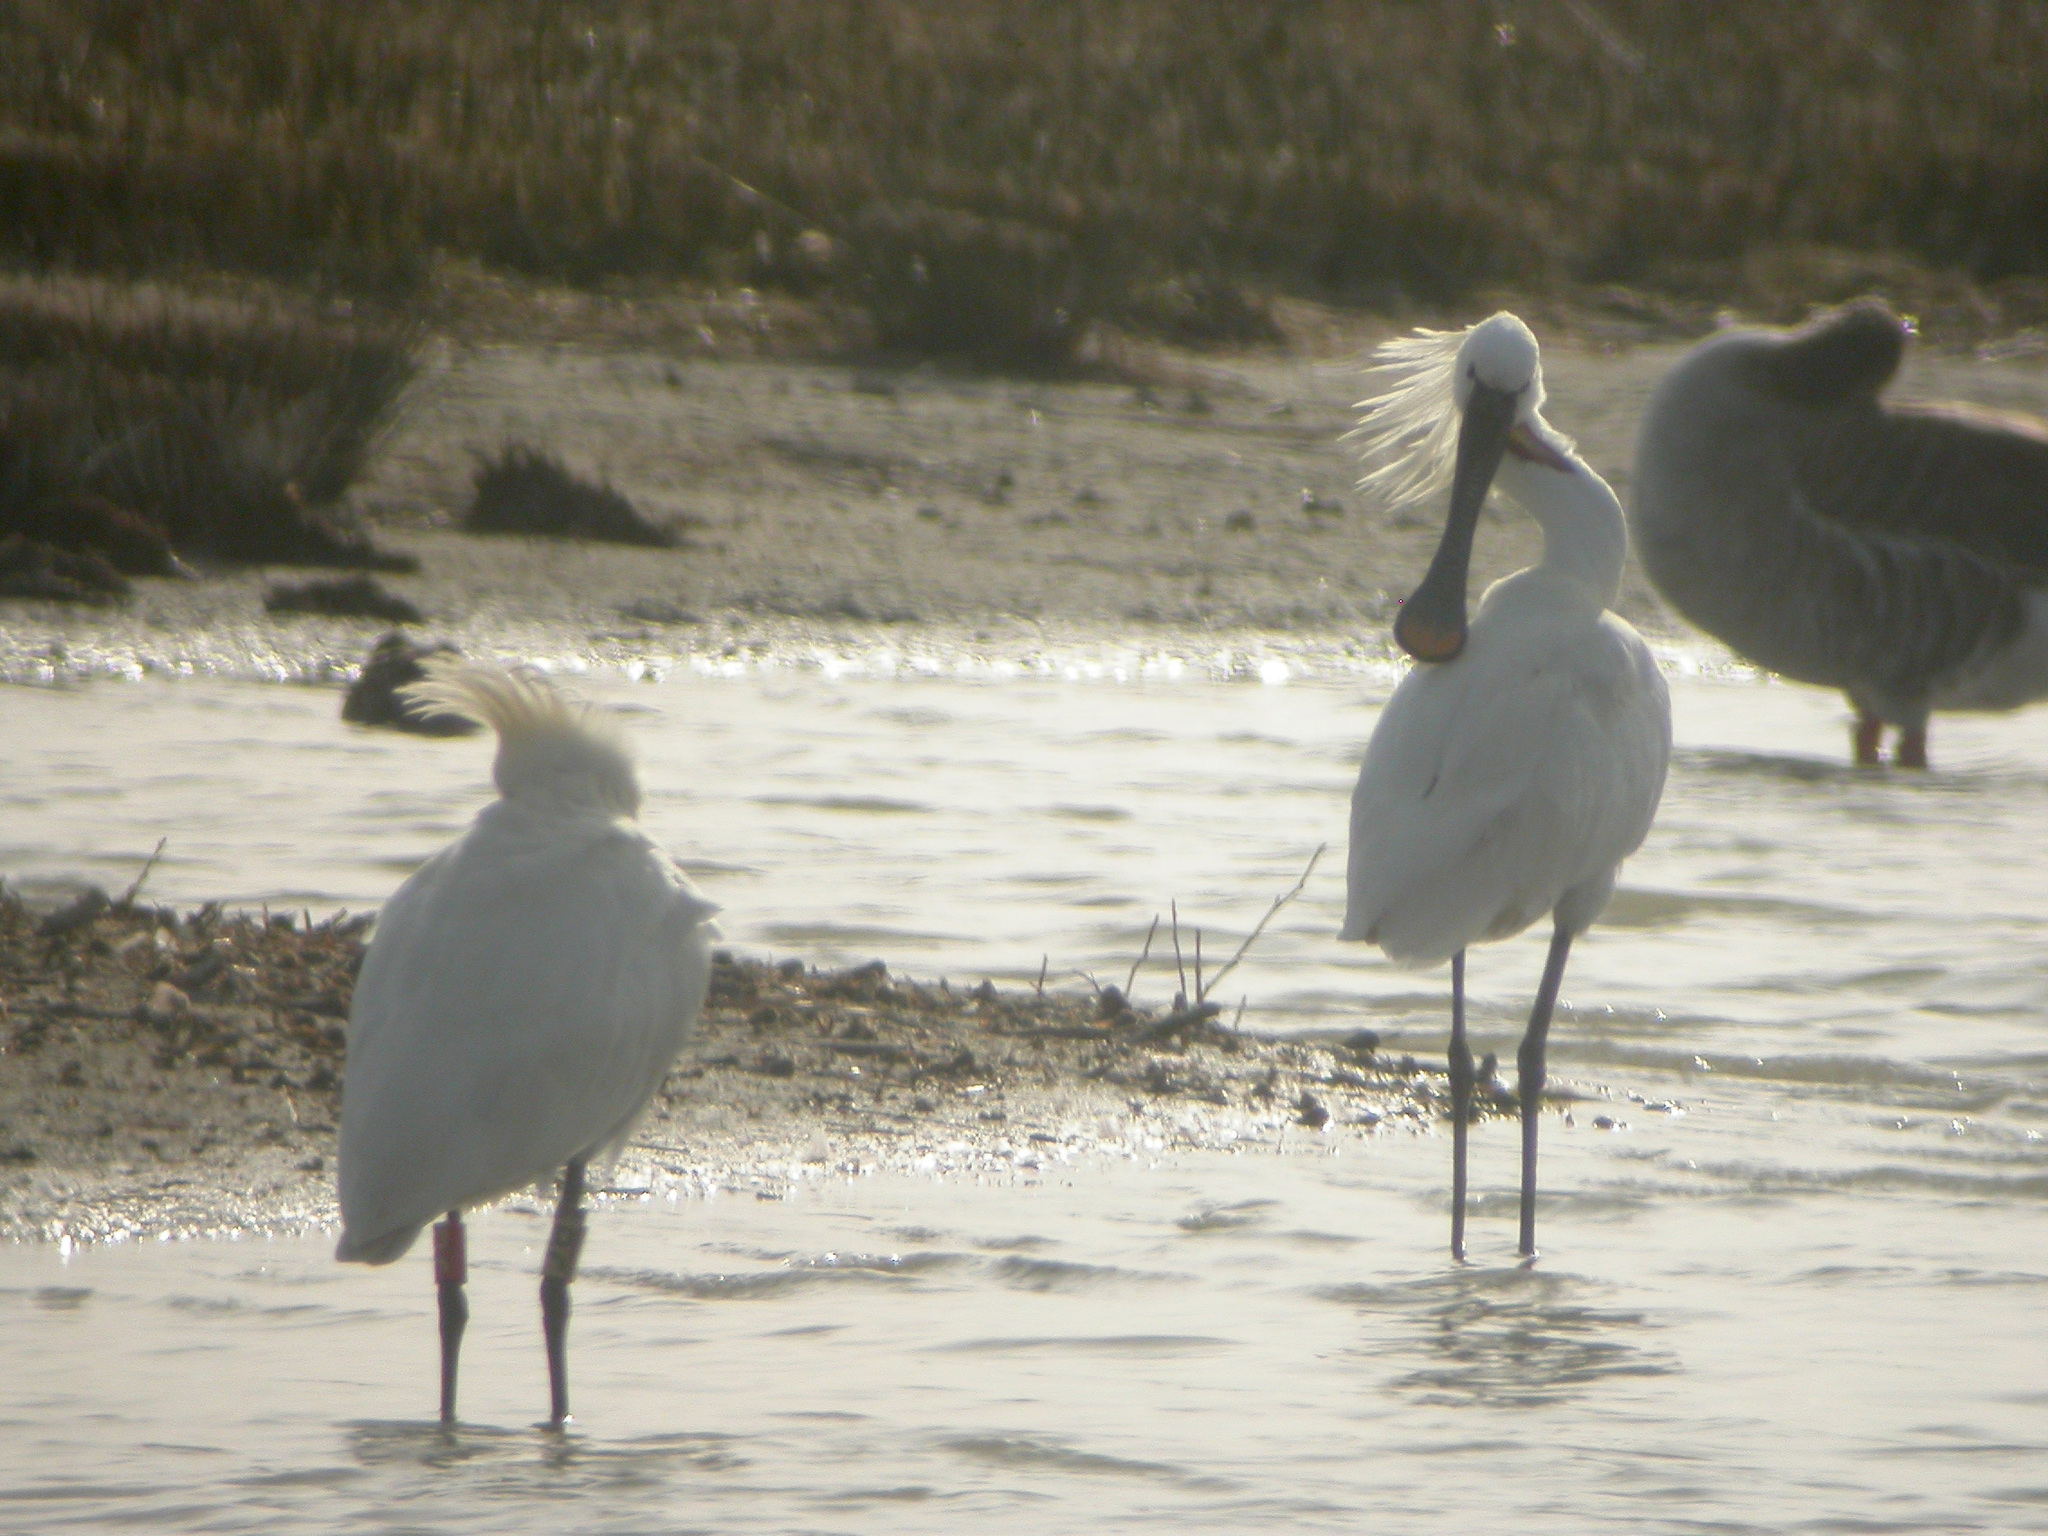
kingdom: Animalia
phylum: Chordata
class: Aves
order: Pelecaniformes
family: Threskiornithidae
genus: Platalea
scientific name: Platalea leucorodia
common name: Eurasian spoonbill
